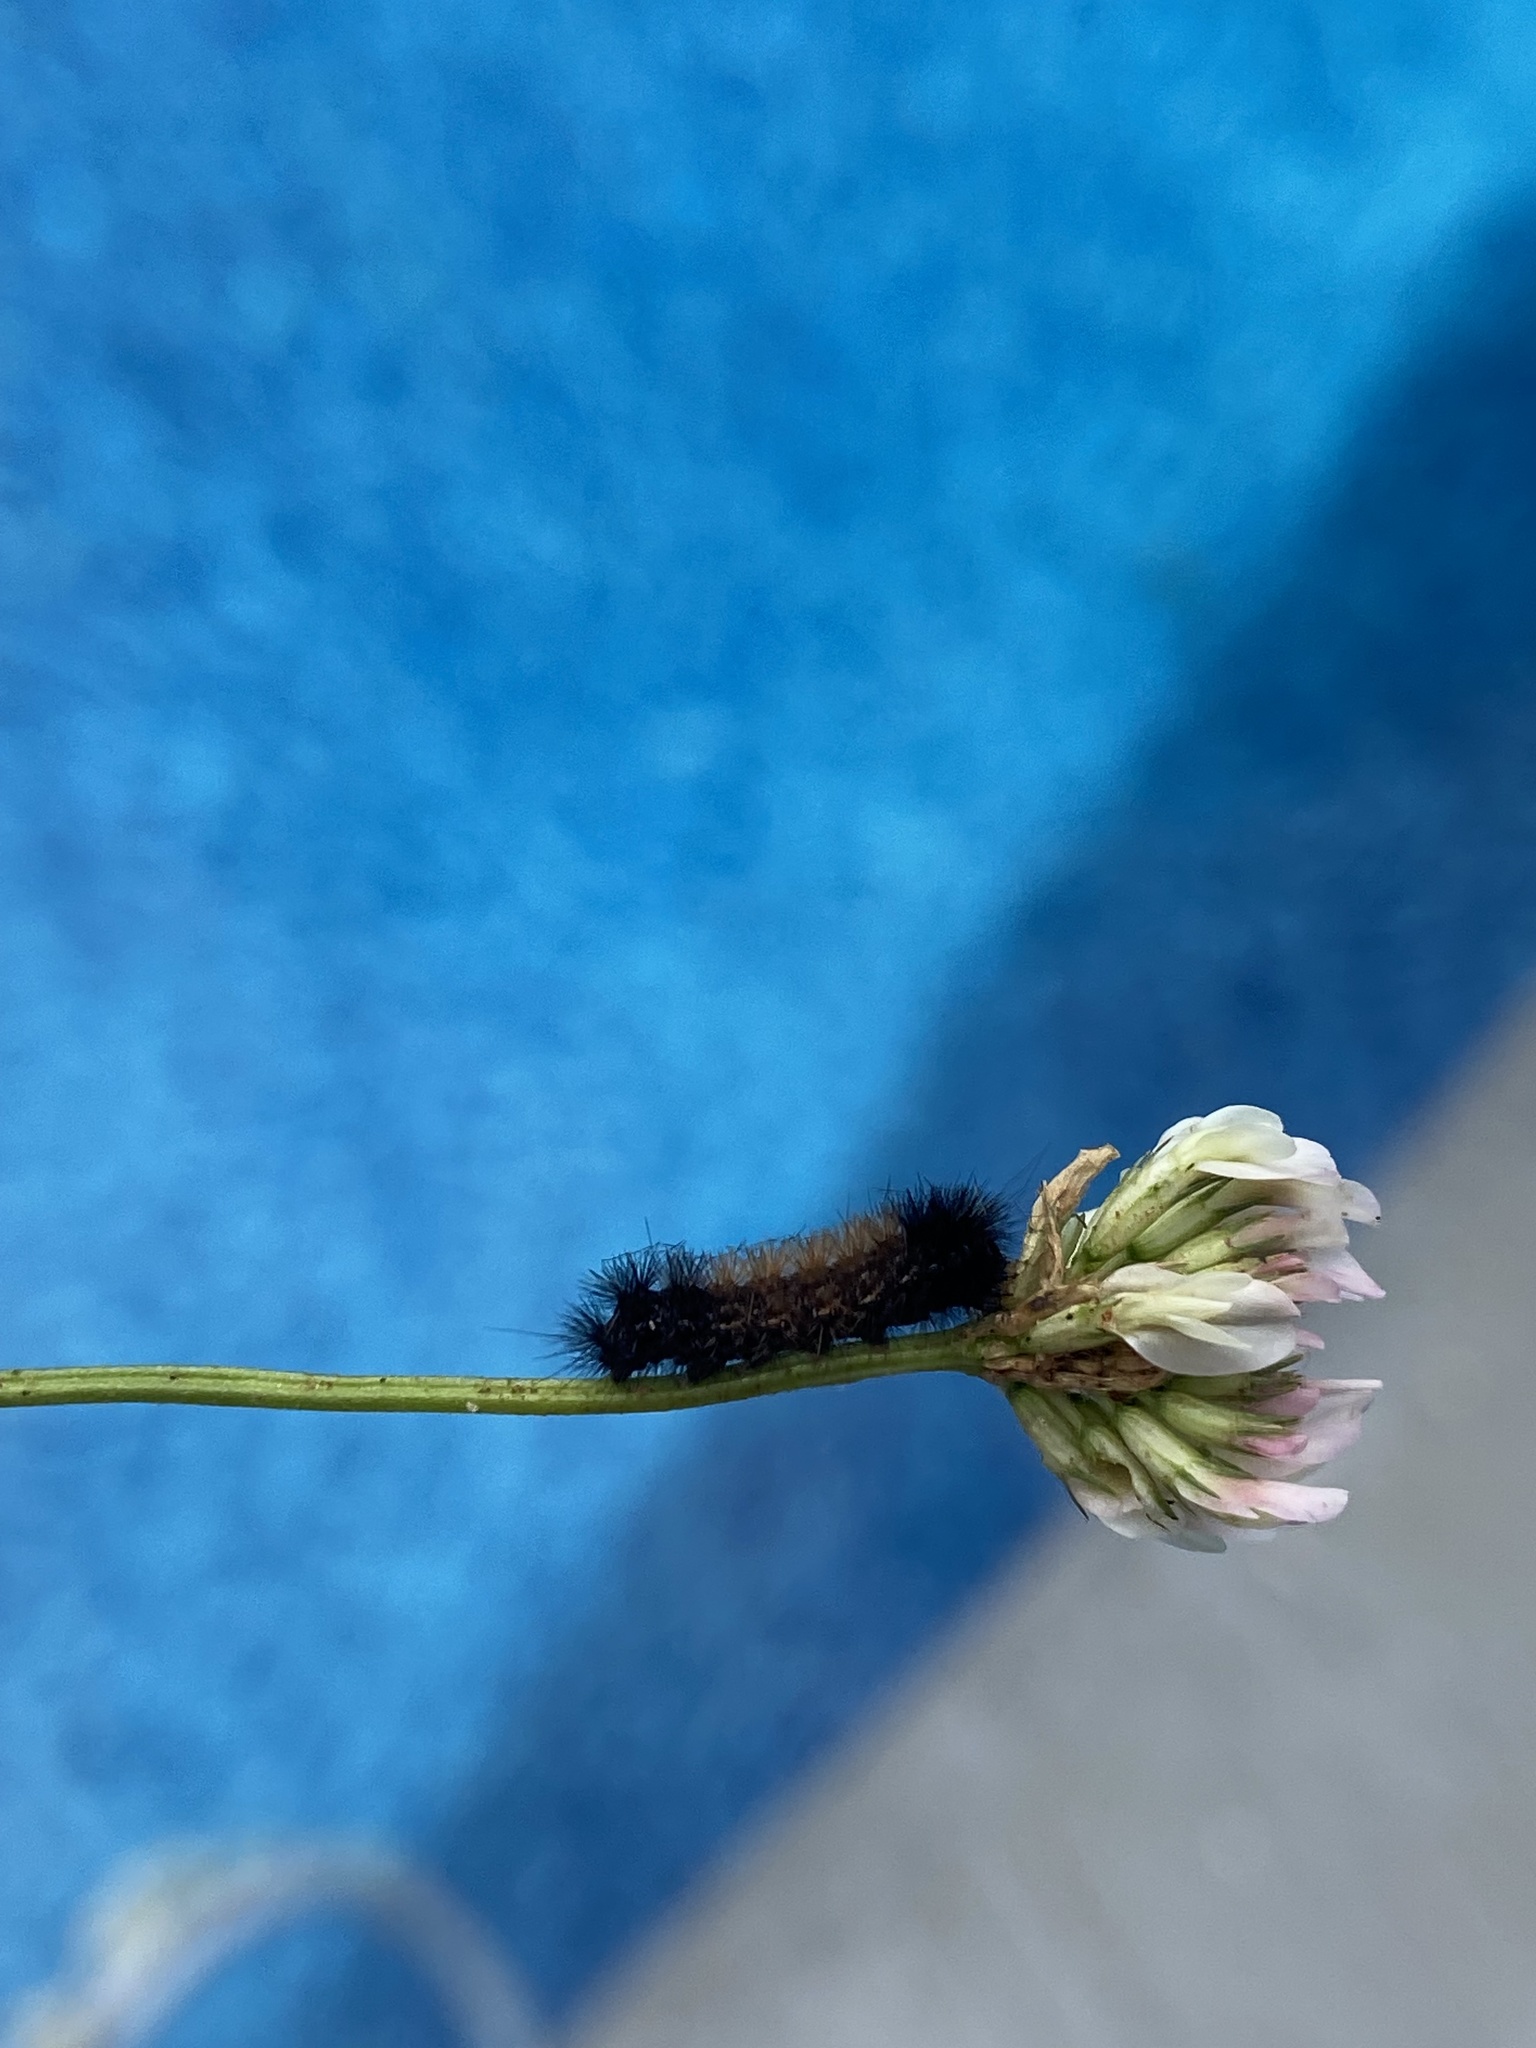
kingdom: Animalia
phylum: Arthropoda
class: Insecta
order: Lepidoptera
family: Erebidae
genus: Pyrrharctia
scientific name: Pyrrharctia isabella
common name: Isabella tiger moth
